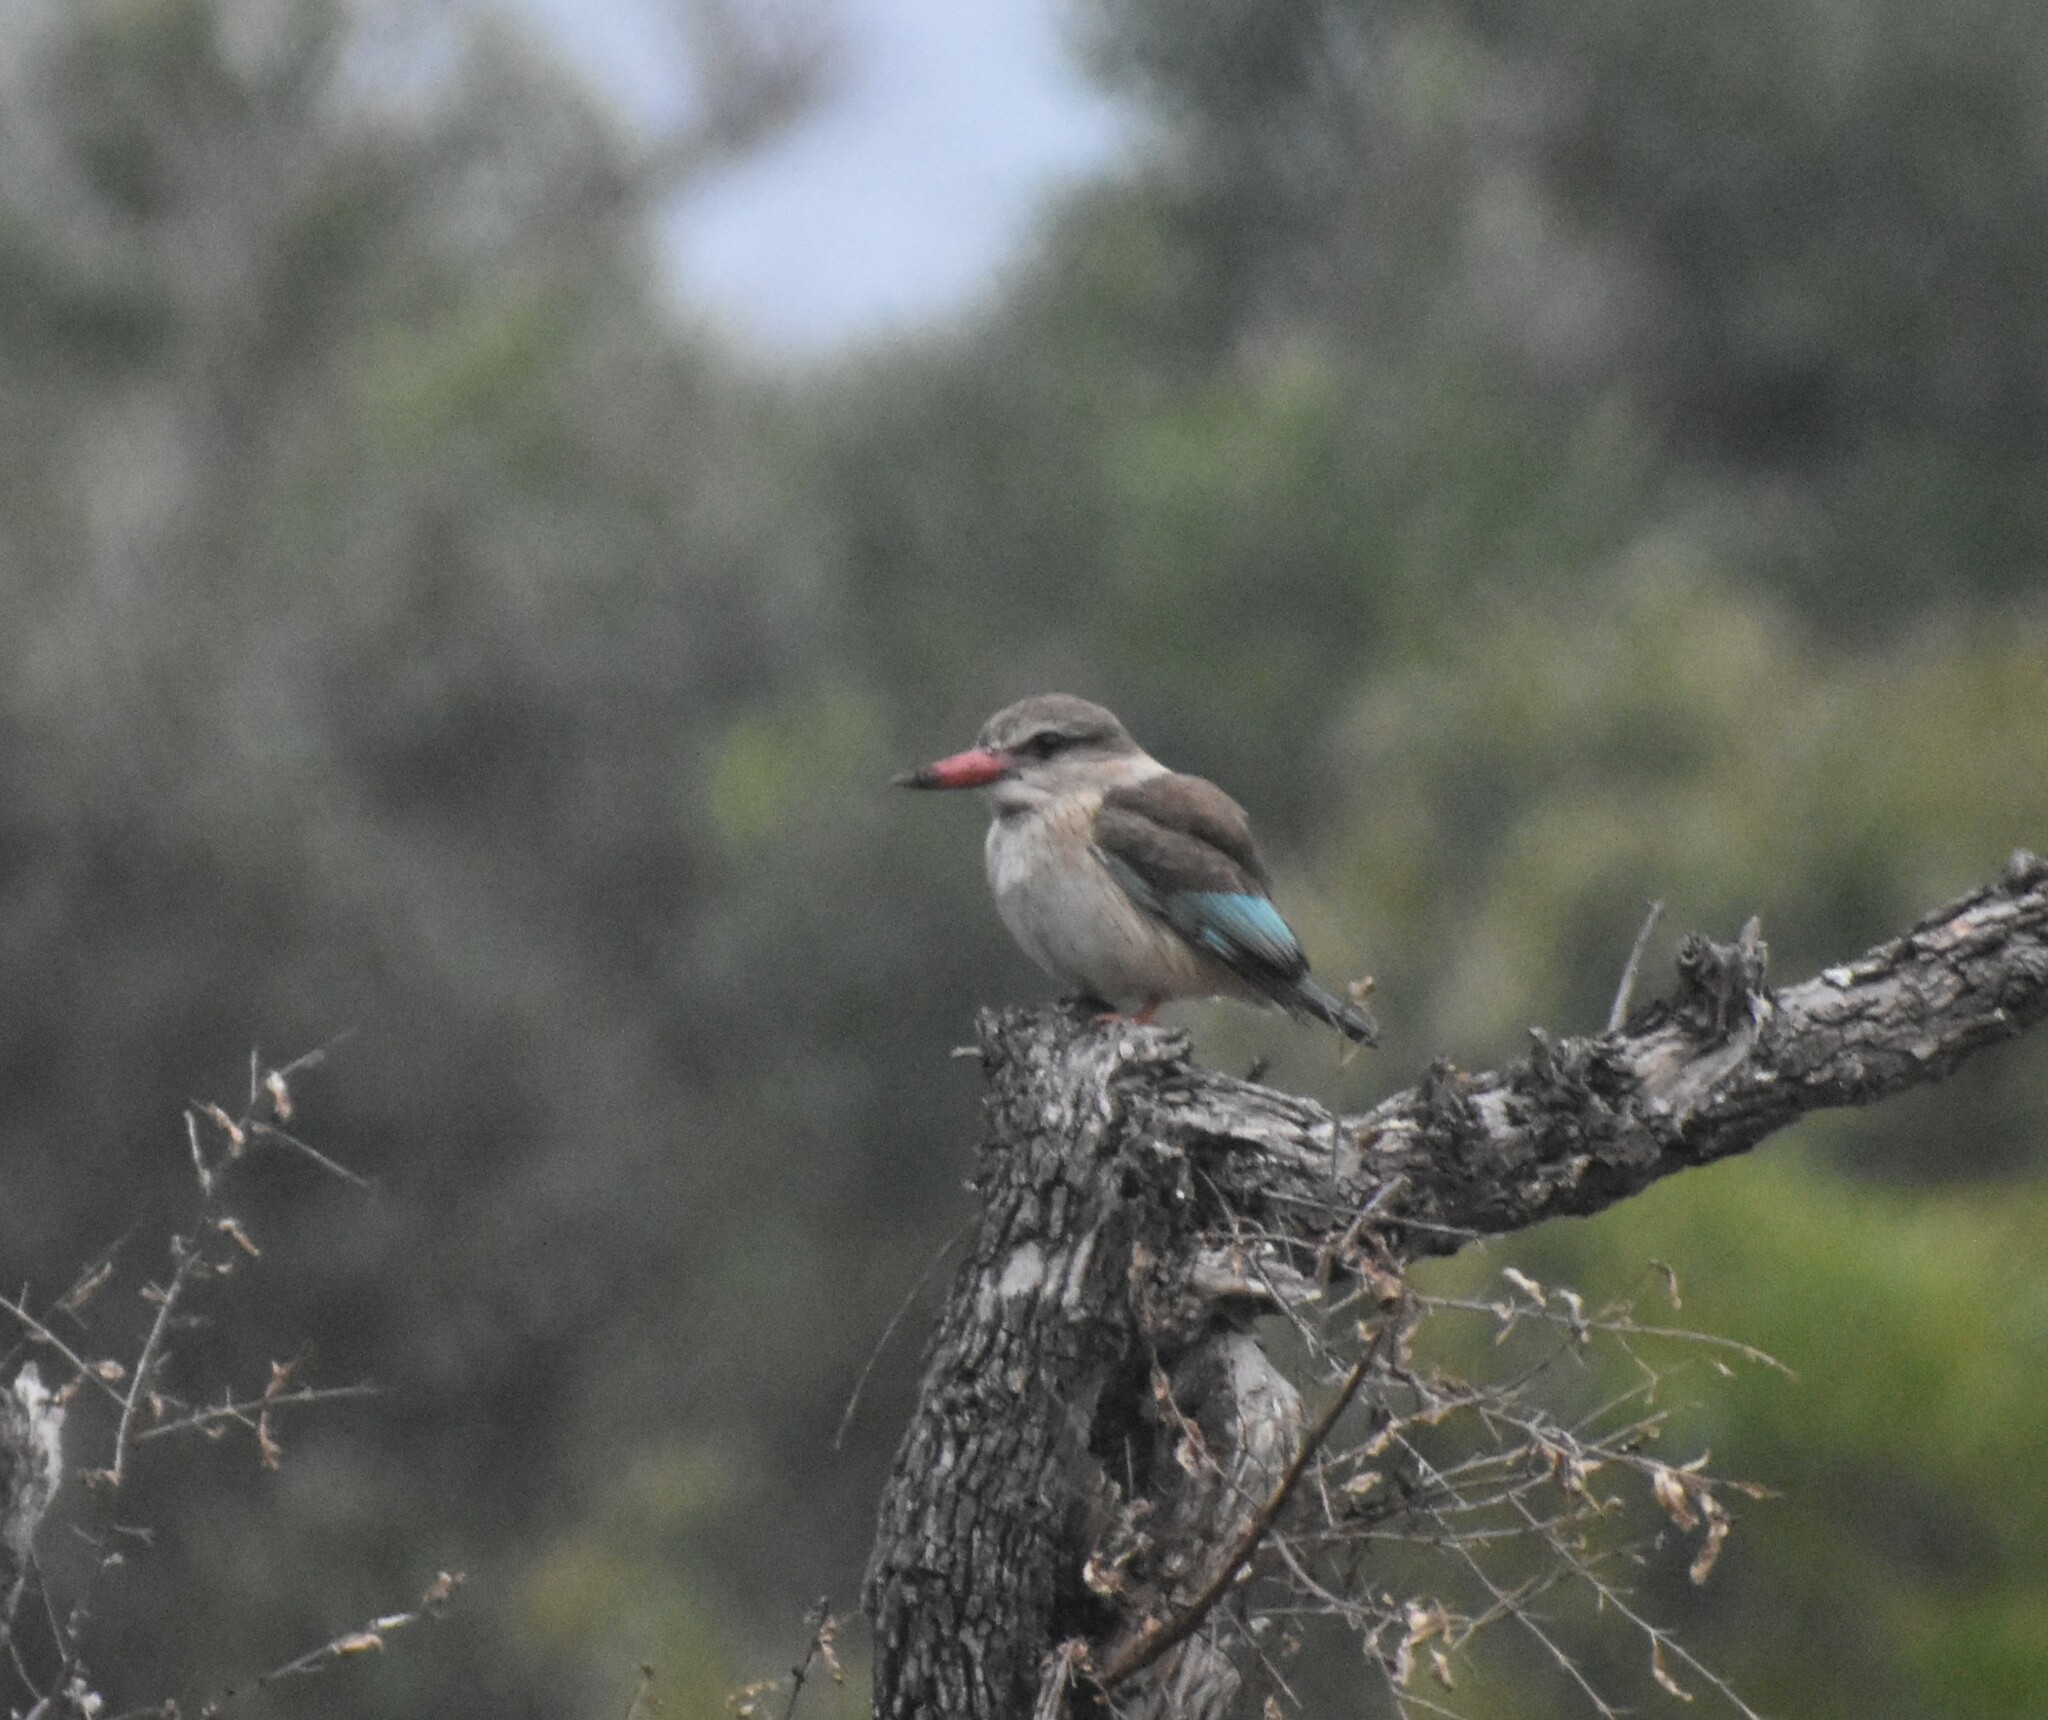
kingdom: Animalia
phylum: Chordata
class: Aves
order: Coraciiformes
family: Alcedinidae
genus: Halcyon
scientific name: Halcyon albiventris
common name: Brown-hooded kingfisher
